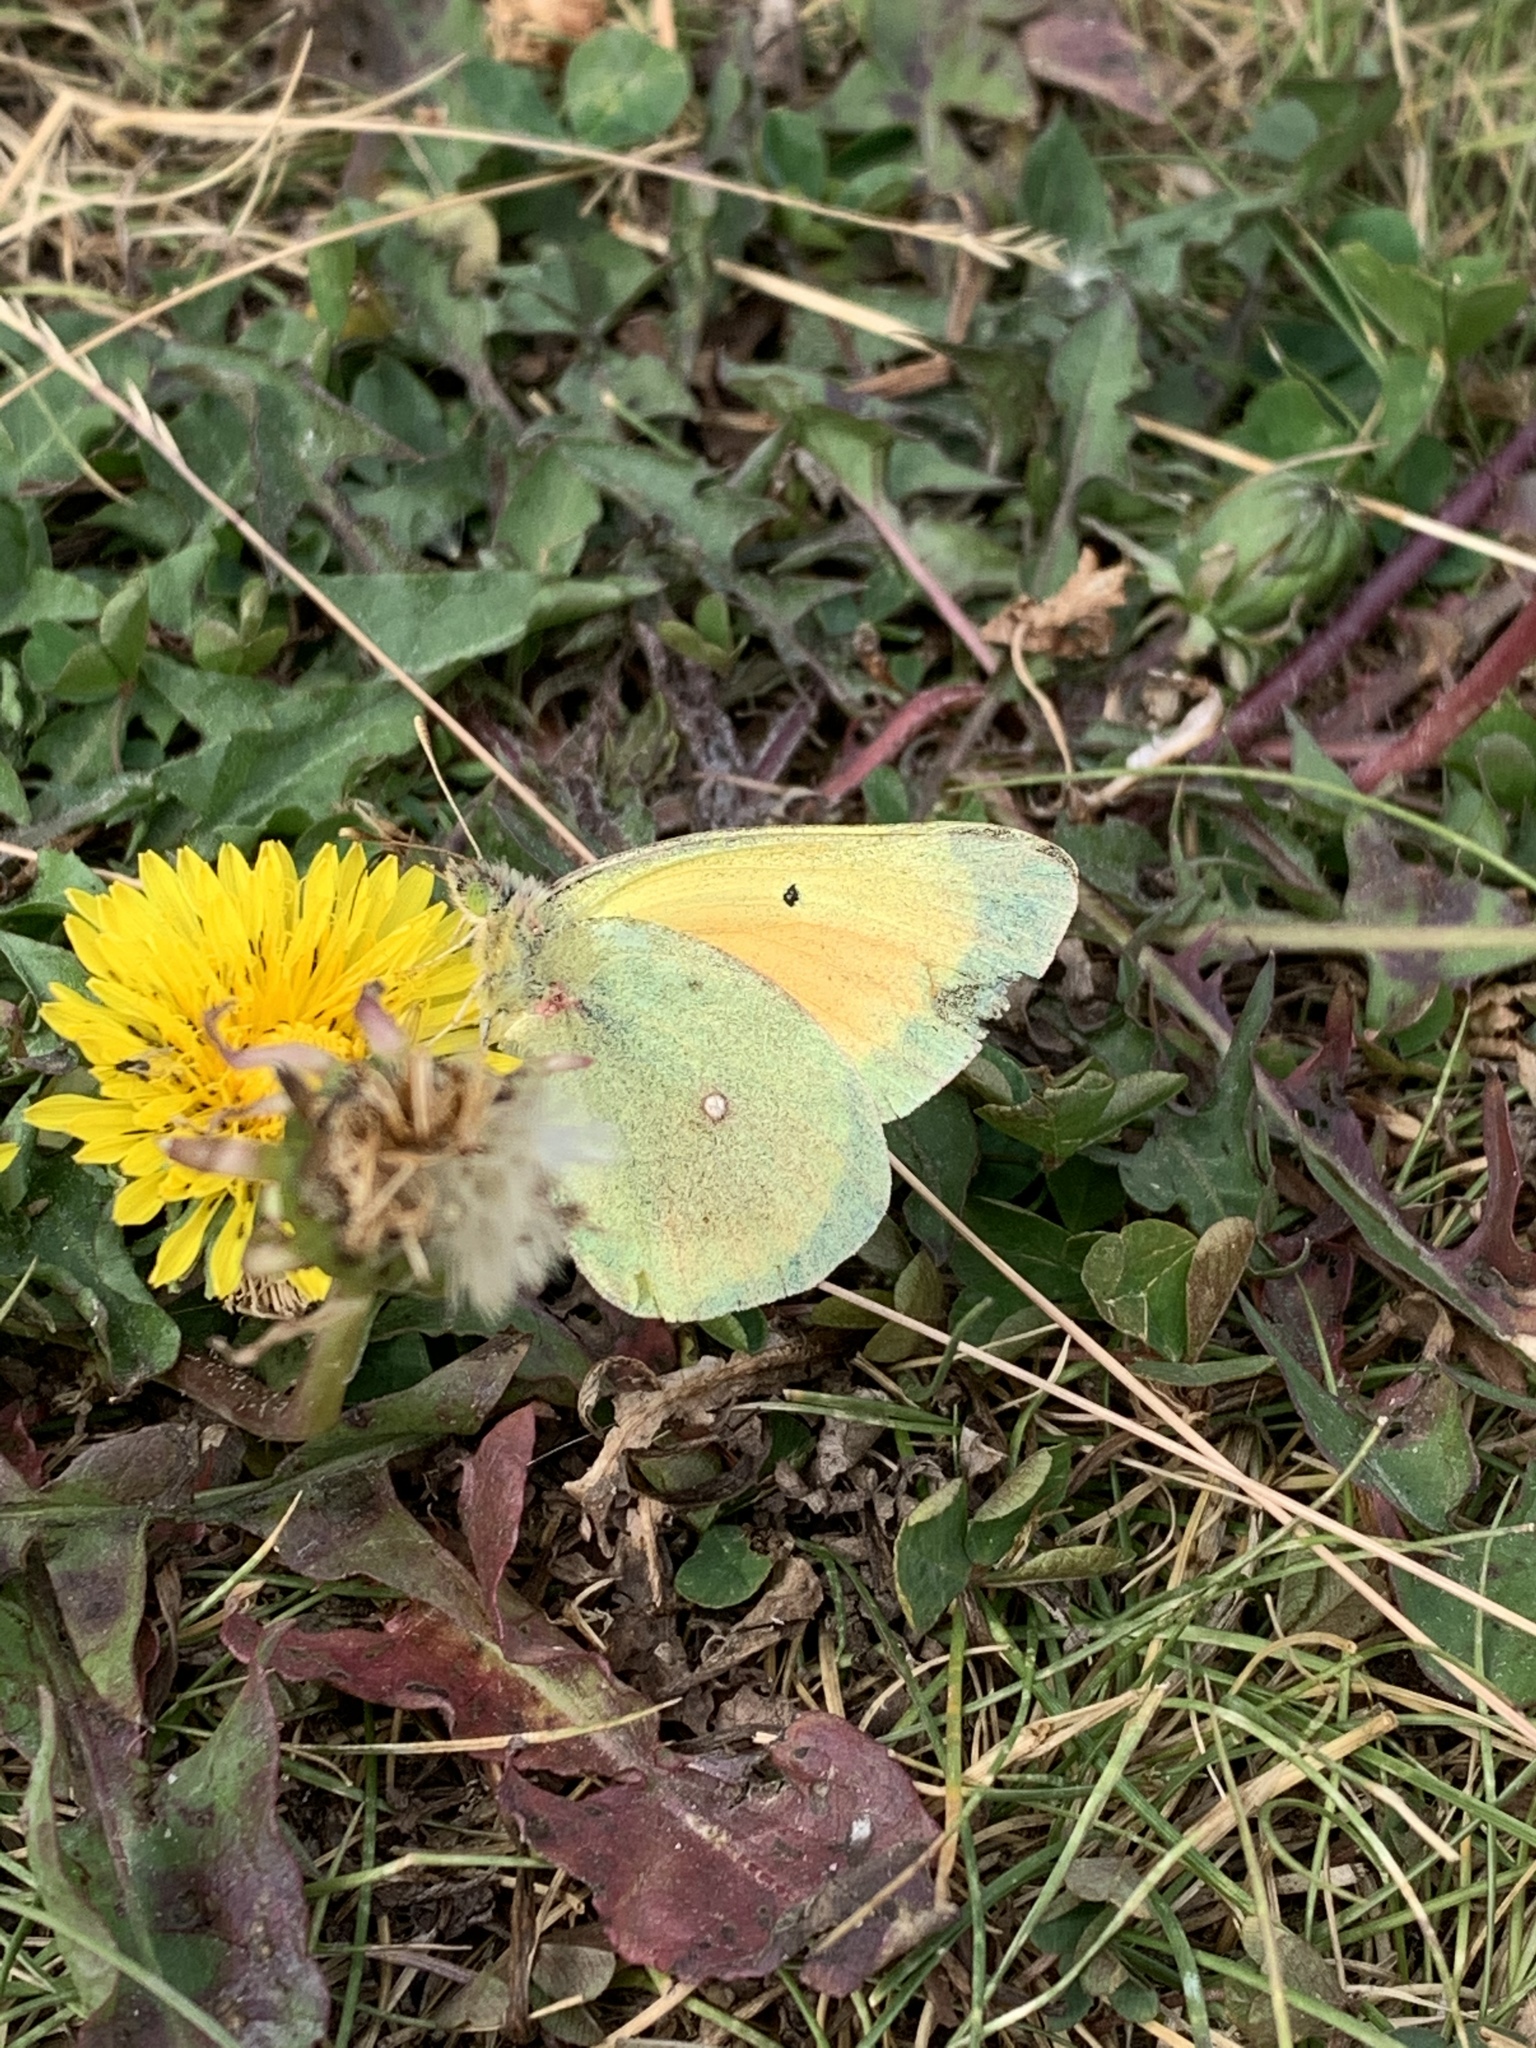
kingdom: Animalia
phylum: Arthropoda
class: Insecta
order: Lepidoptera
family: Pieridae
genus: Colias
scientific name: Colias christina
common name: Christina sulphur
